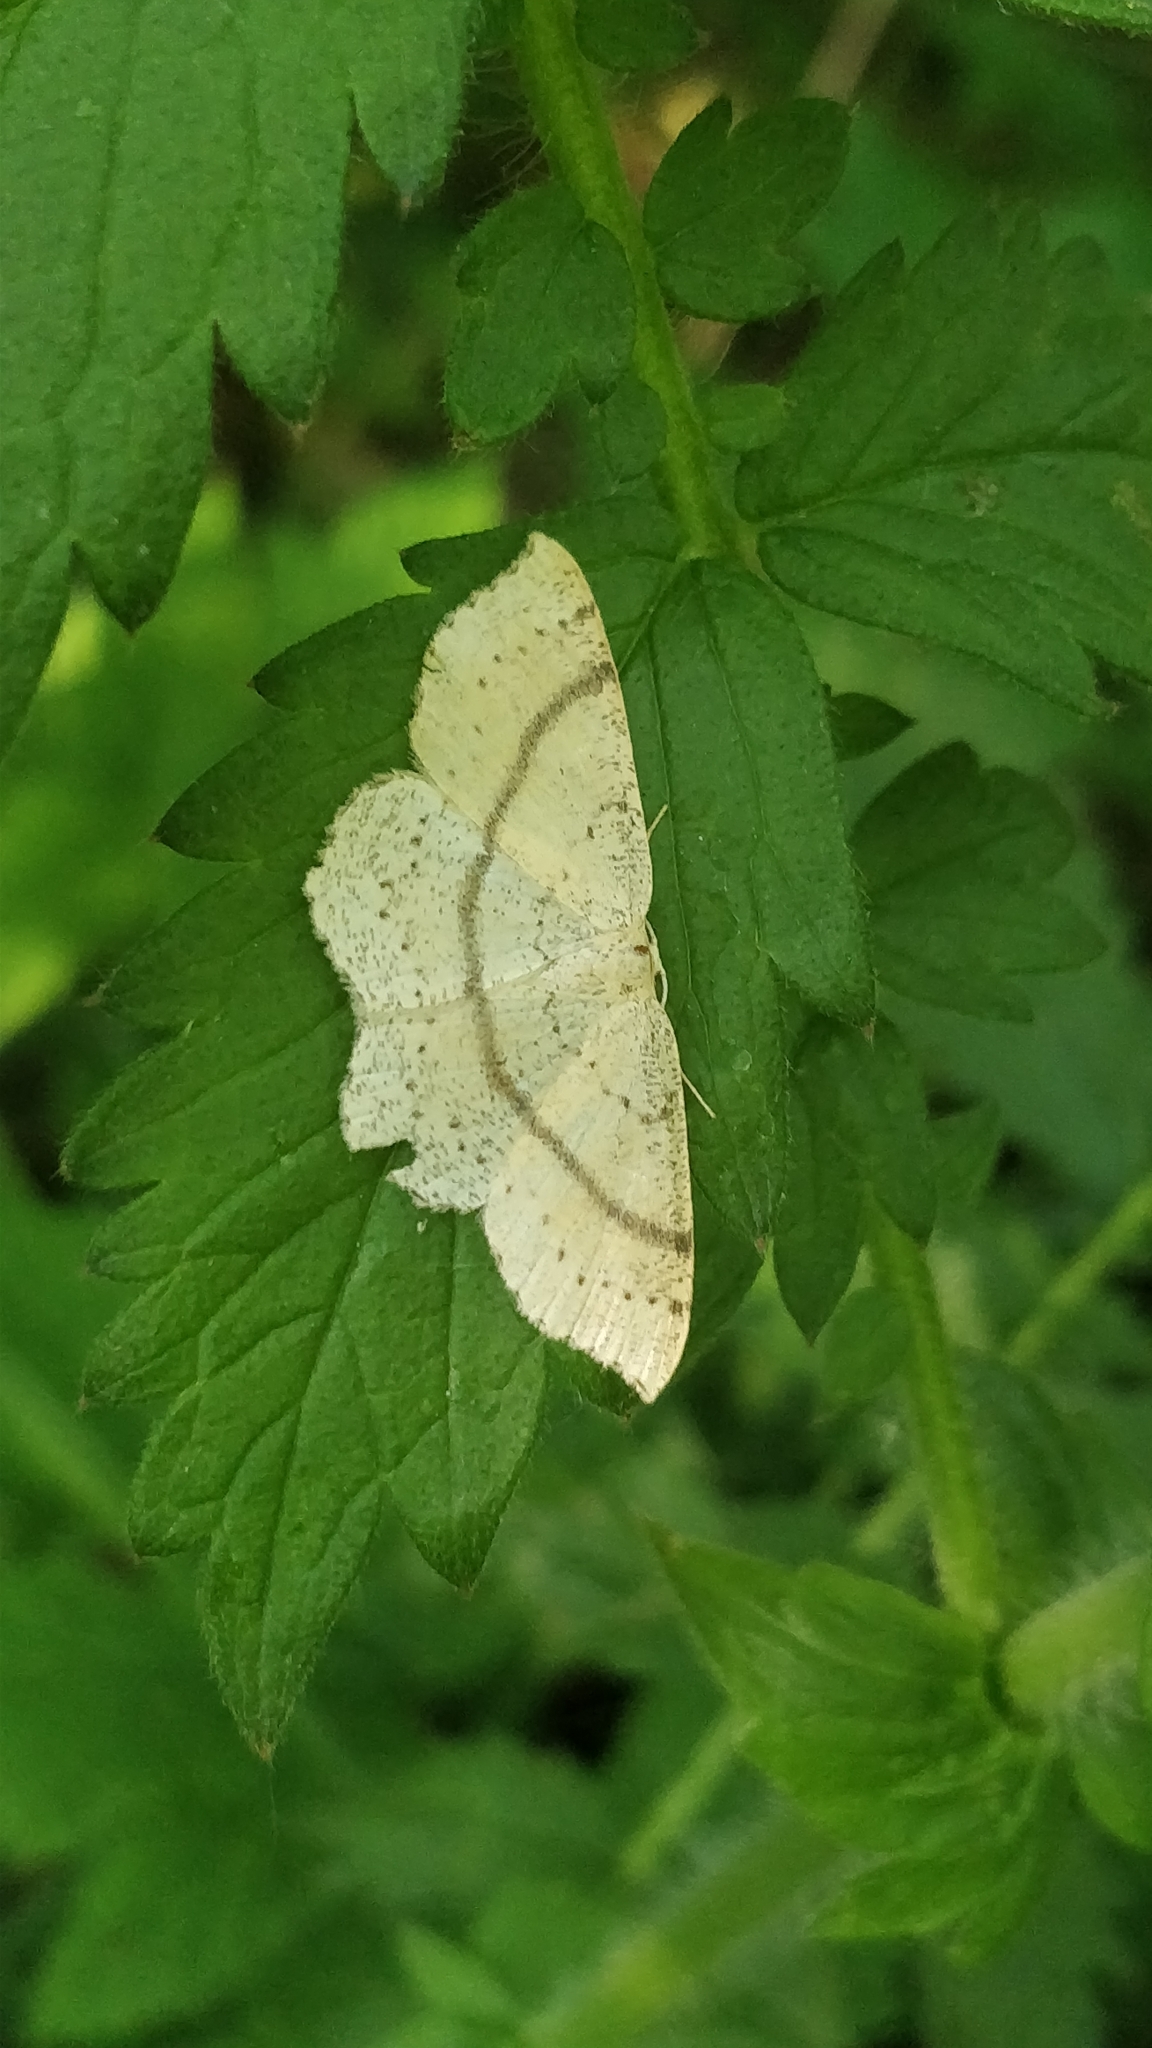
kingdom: Animalia
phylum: Arthropoda
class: Insecta
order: Lepidoptera
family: Geometridae
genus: Cyclophora
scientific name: Cyclophora punctaria
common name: Maiden's blush
